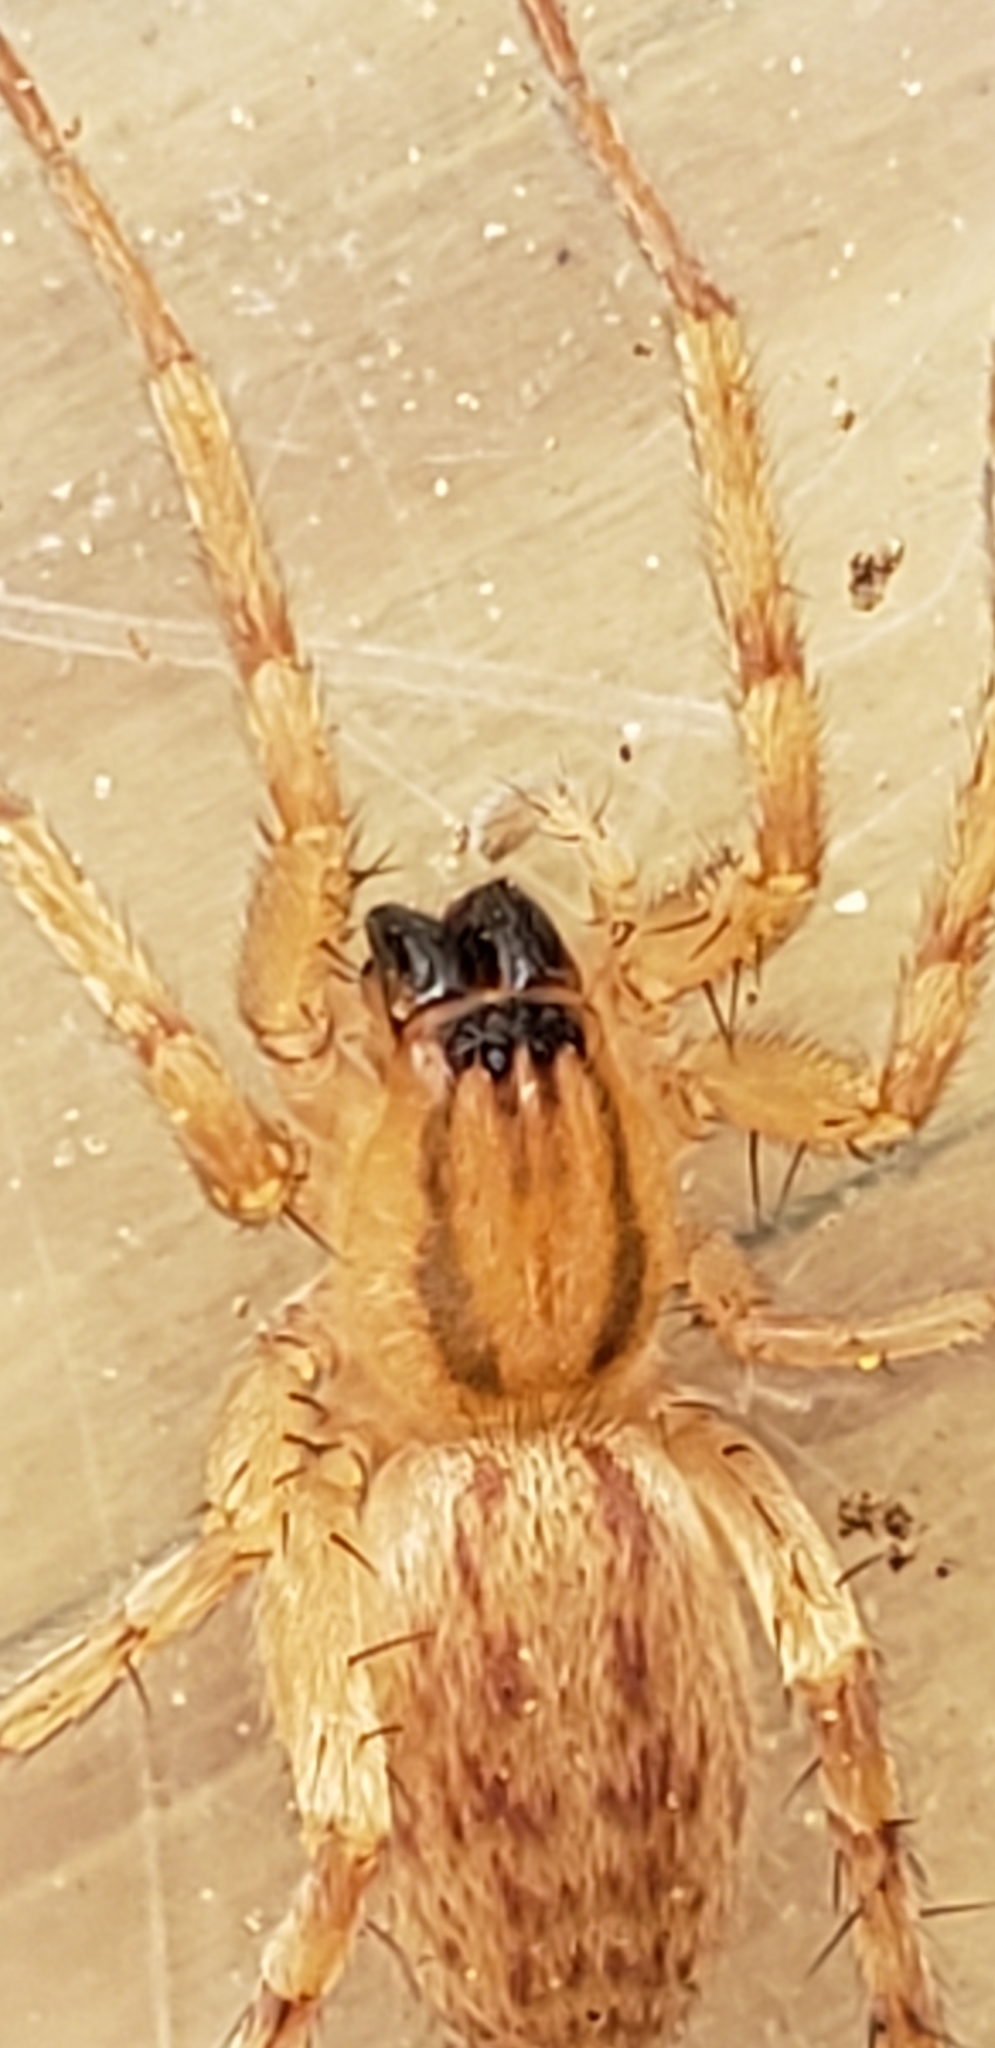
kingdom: Animalia
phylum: Arthropoda
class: Arachnida
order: Araneae
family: Anyphaenidae
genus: Hibana
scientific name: Hibana gracilis
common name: Garden ghost spider
